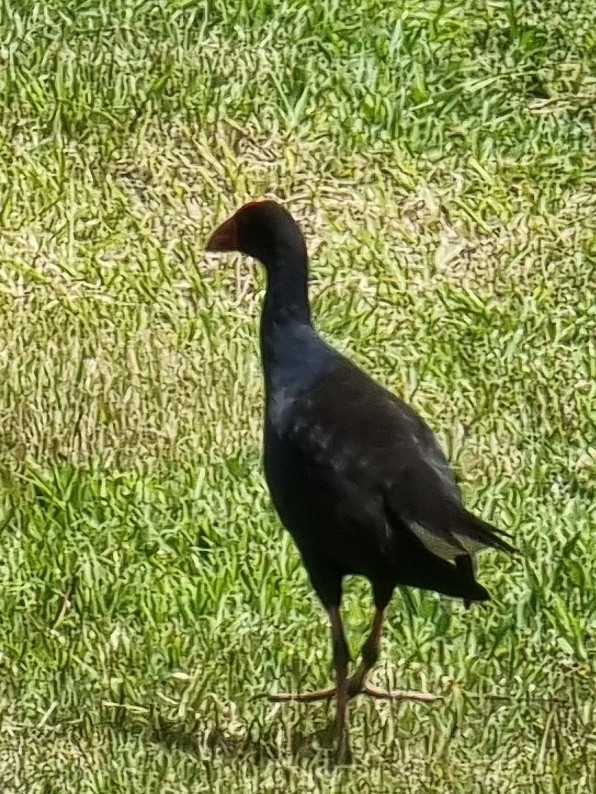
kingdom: Animalia
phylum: Chordata
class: Aves
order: Gruiformes
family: Rallidae
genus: Porphyrio
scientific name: Porphyrio melanotus
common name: Australasian swamphen
